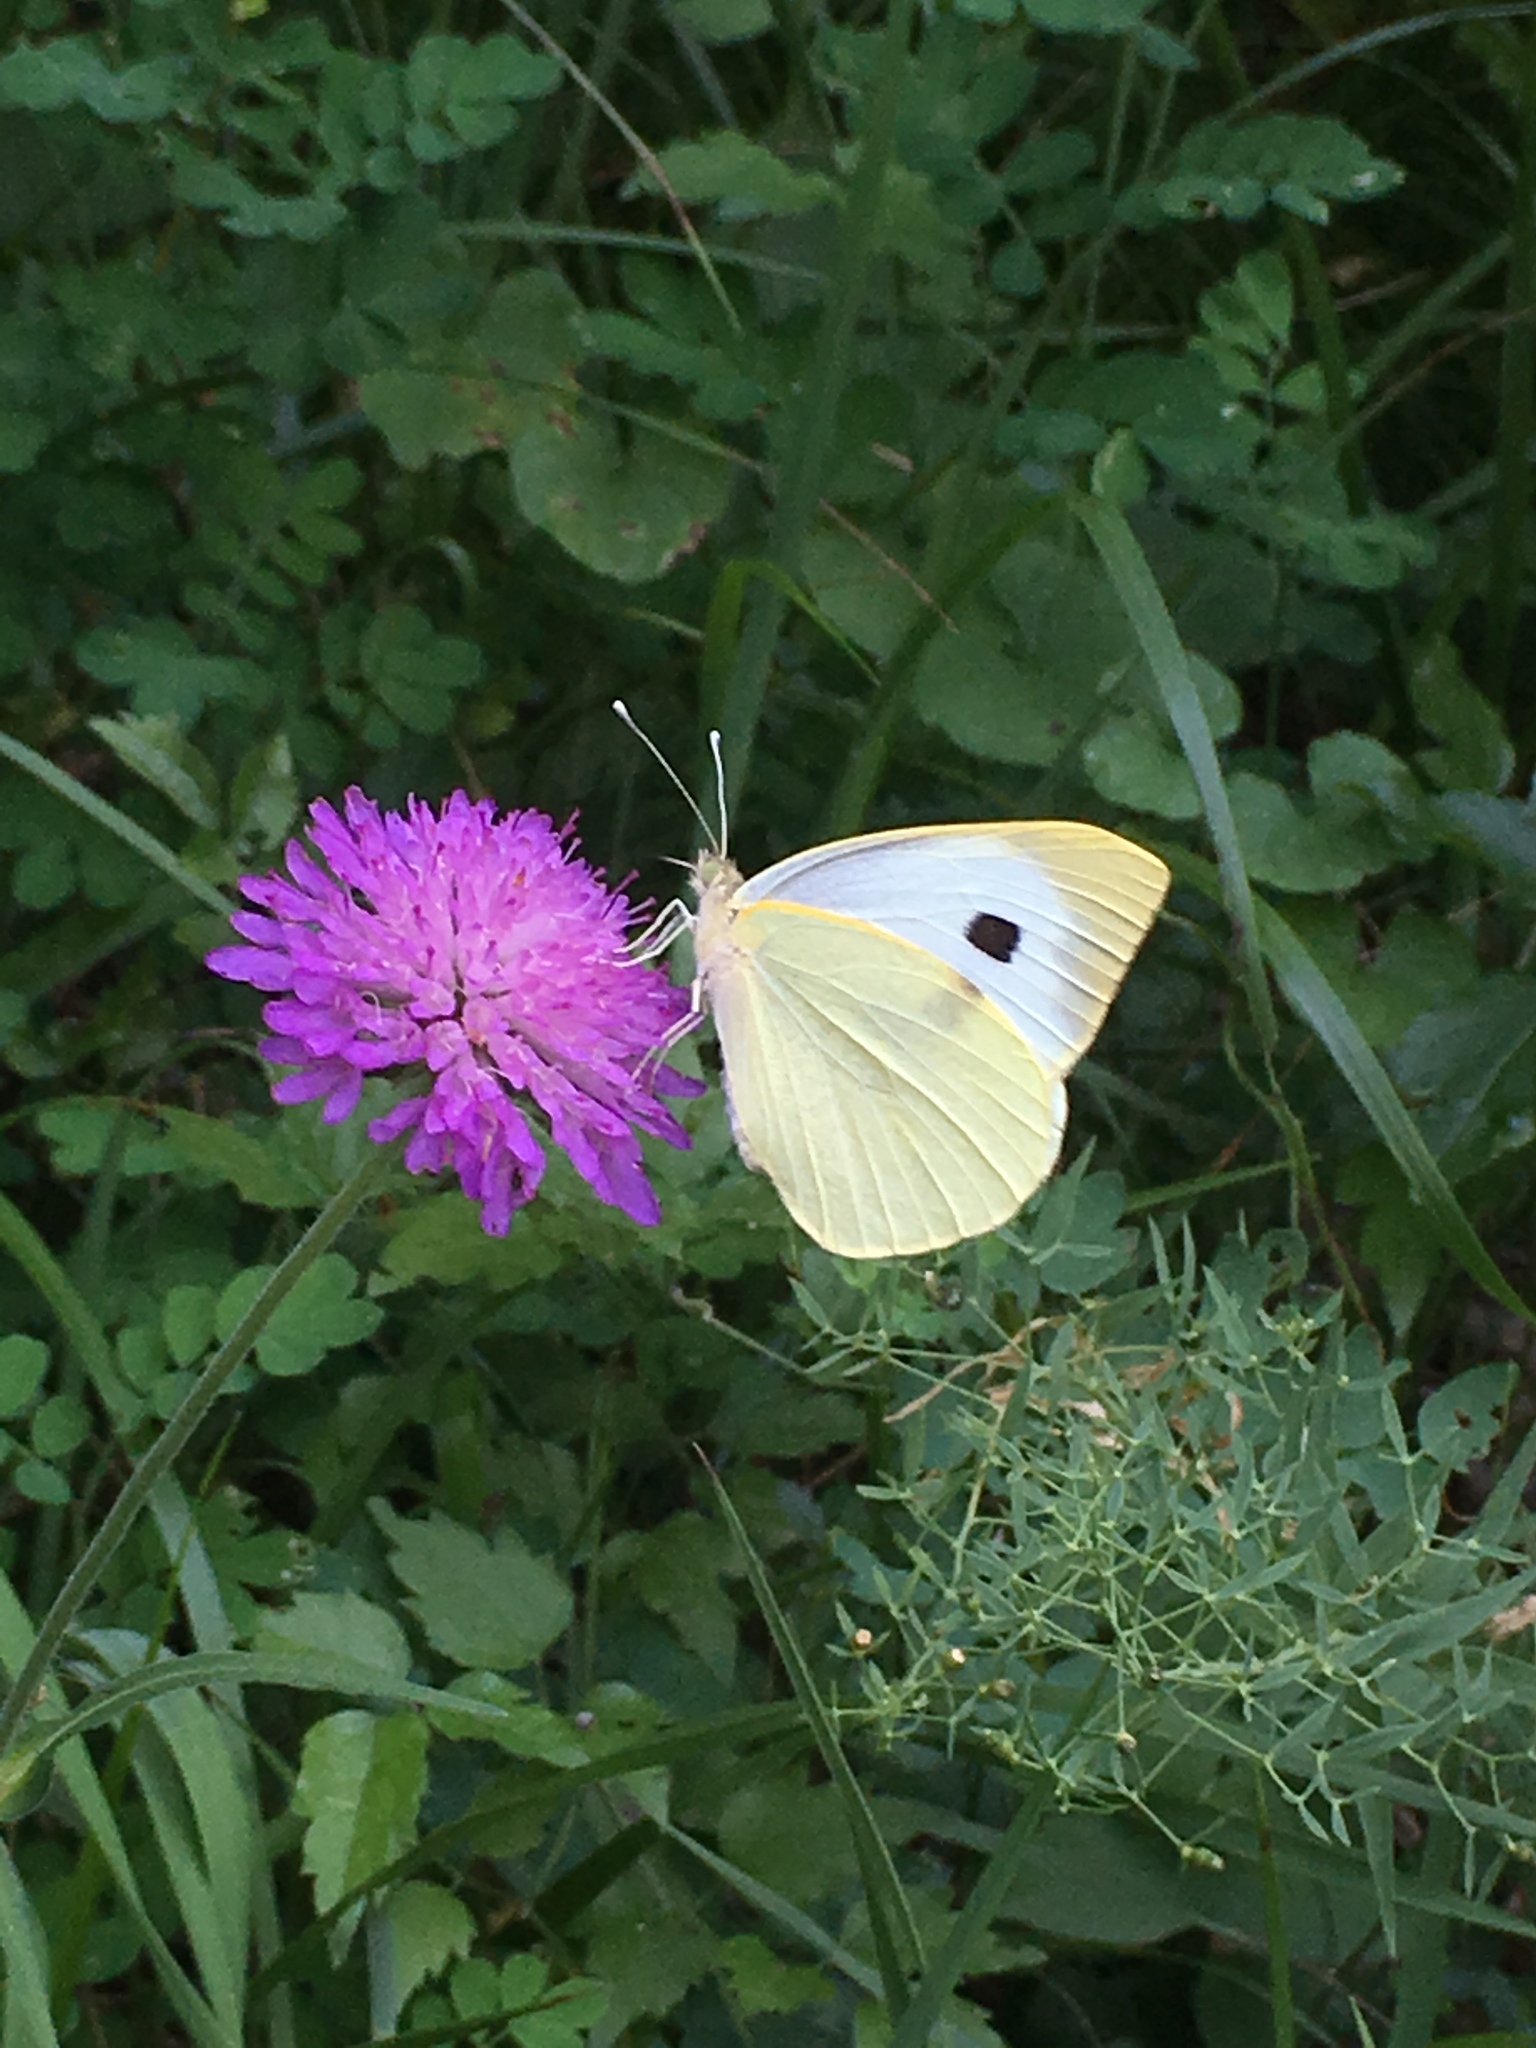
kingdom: Animalia
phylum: Arthropoda
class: Insecta
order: Lepidoptera
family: Pieridae
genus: Pieris
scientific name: Pieris brassicae
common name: Large white
